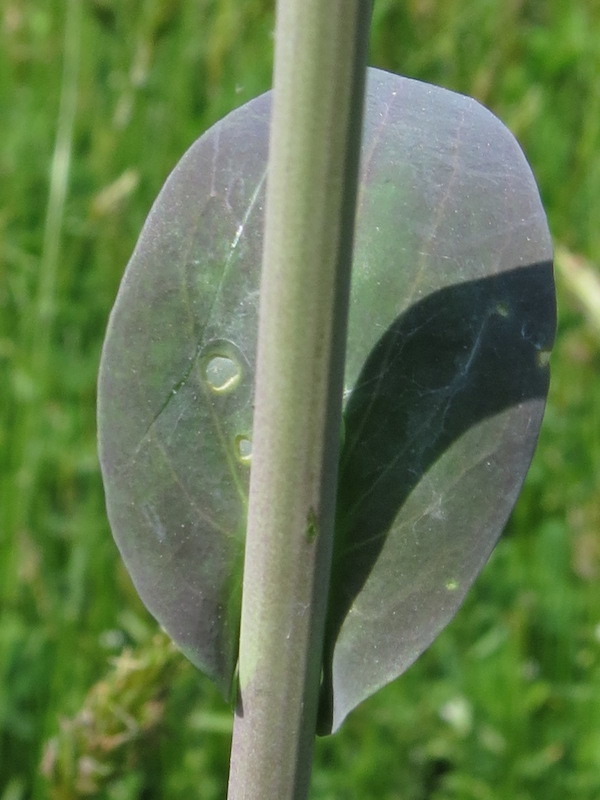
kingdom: Plantae
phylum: Tracheophyta
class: Magnoliopsida
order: Brassicales
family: Brassicaceae
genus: Turritis
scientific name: Turritis glabra
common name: Tower rockcress
